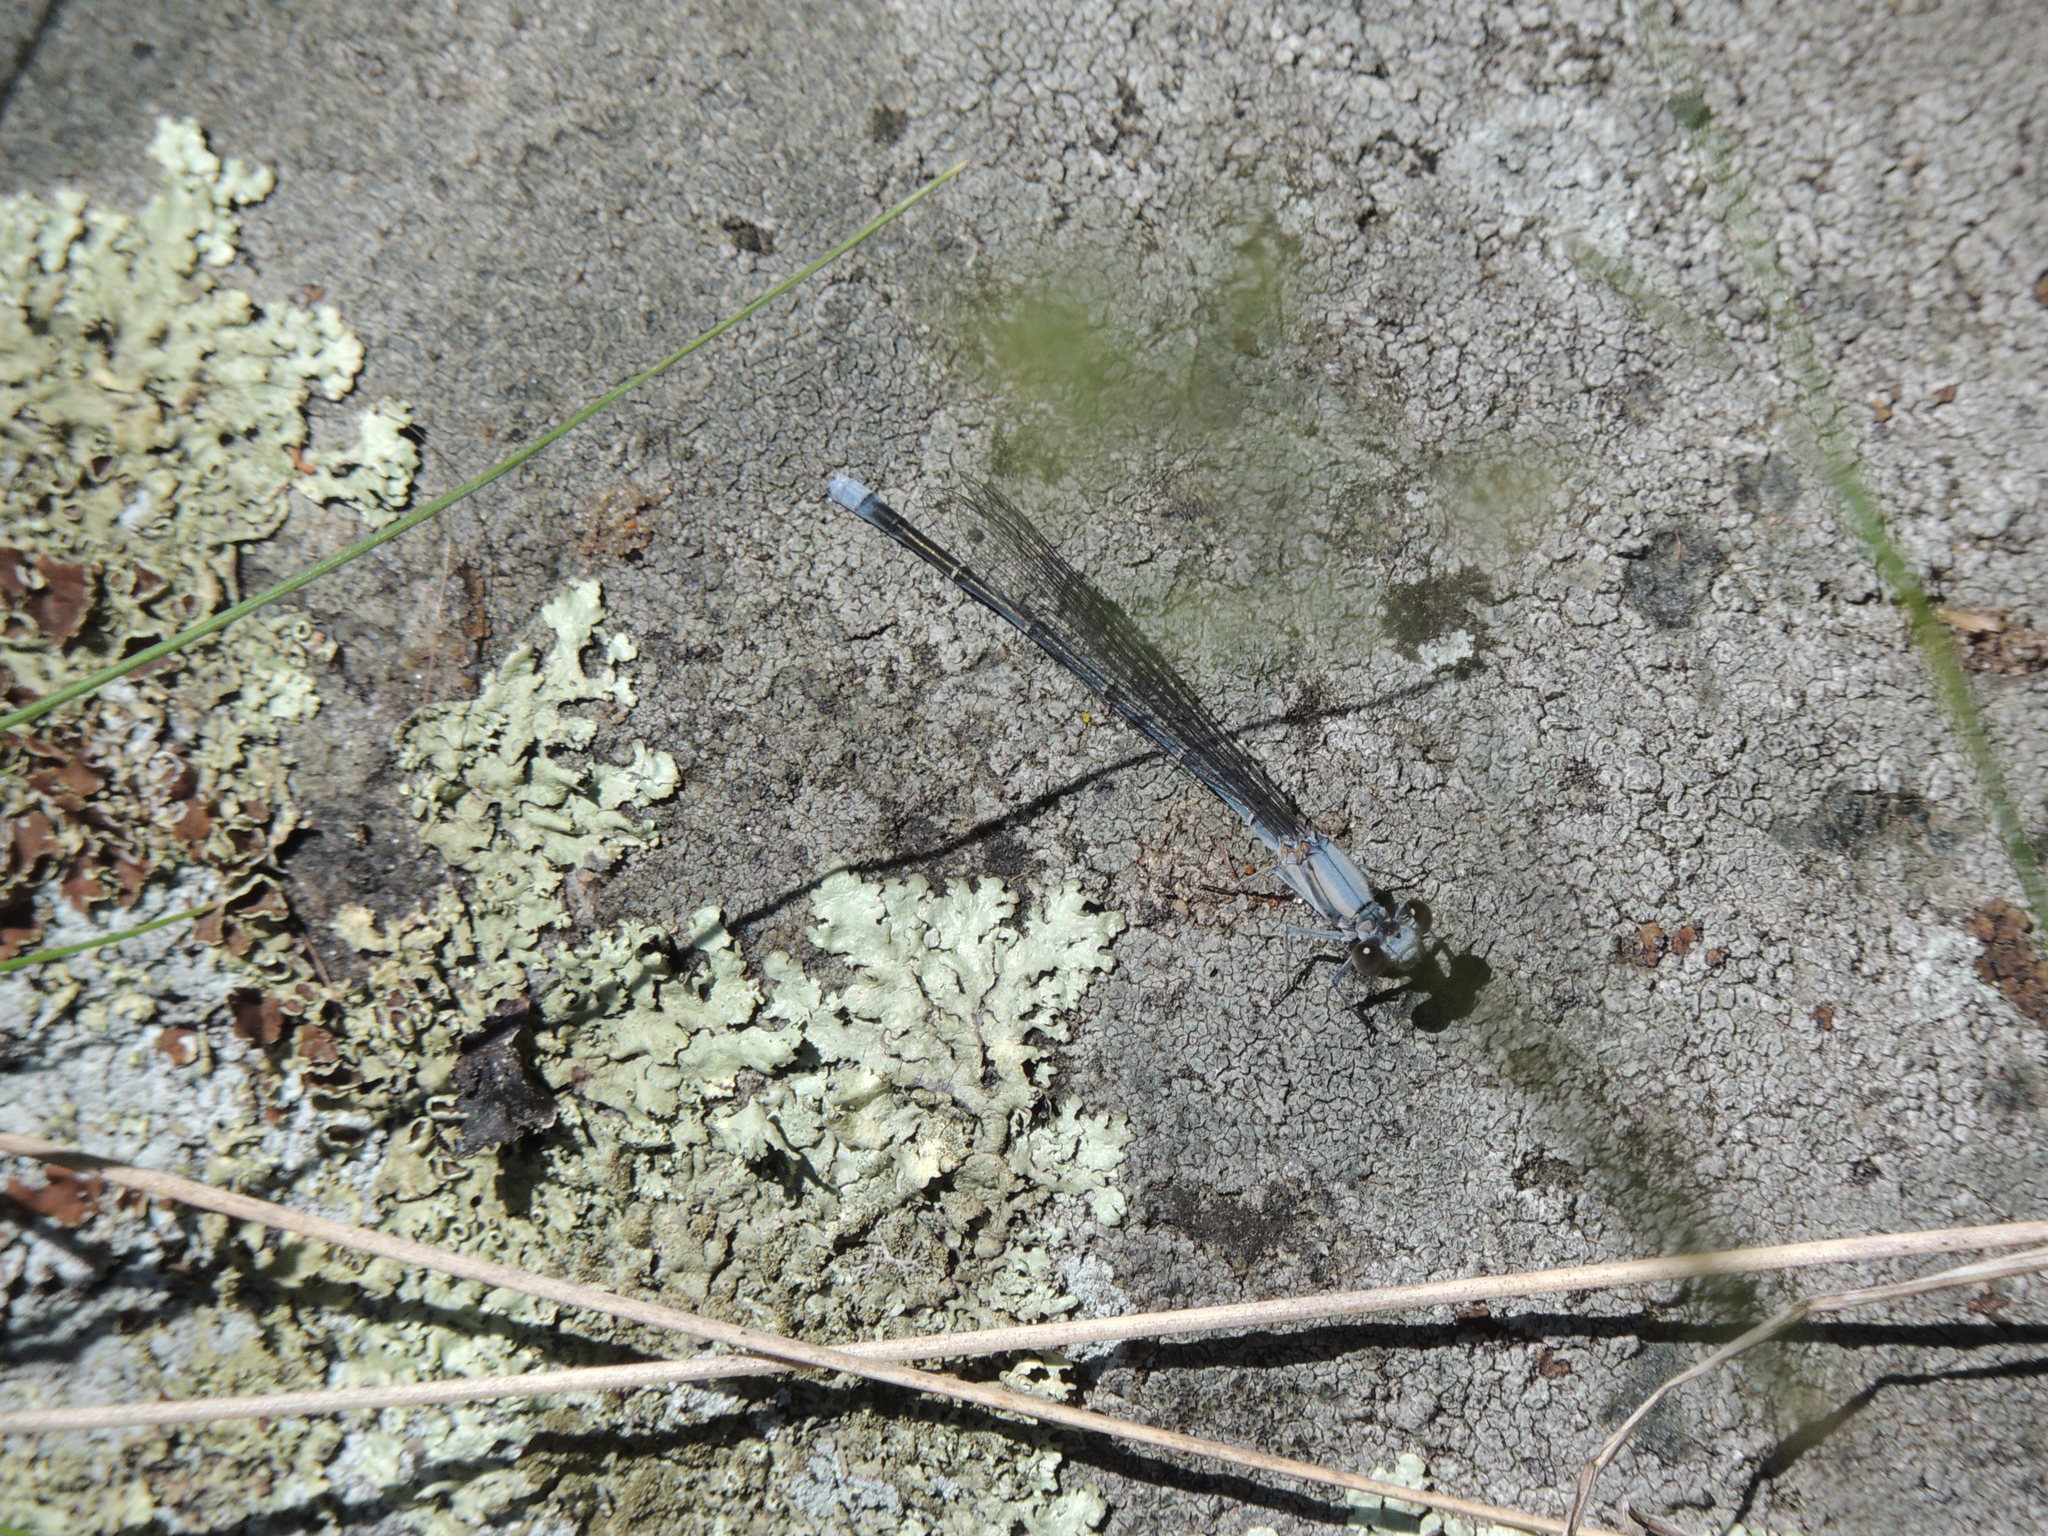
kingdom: Animalia
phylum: Arthropoda
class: Insecta
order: Odonata
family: Coenagrionidae
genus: Argia
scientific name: Argia moesta
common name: Powdered dancer
